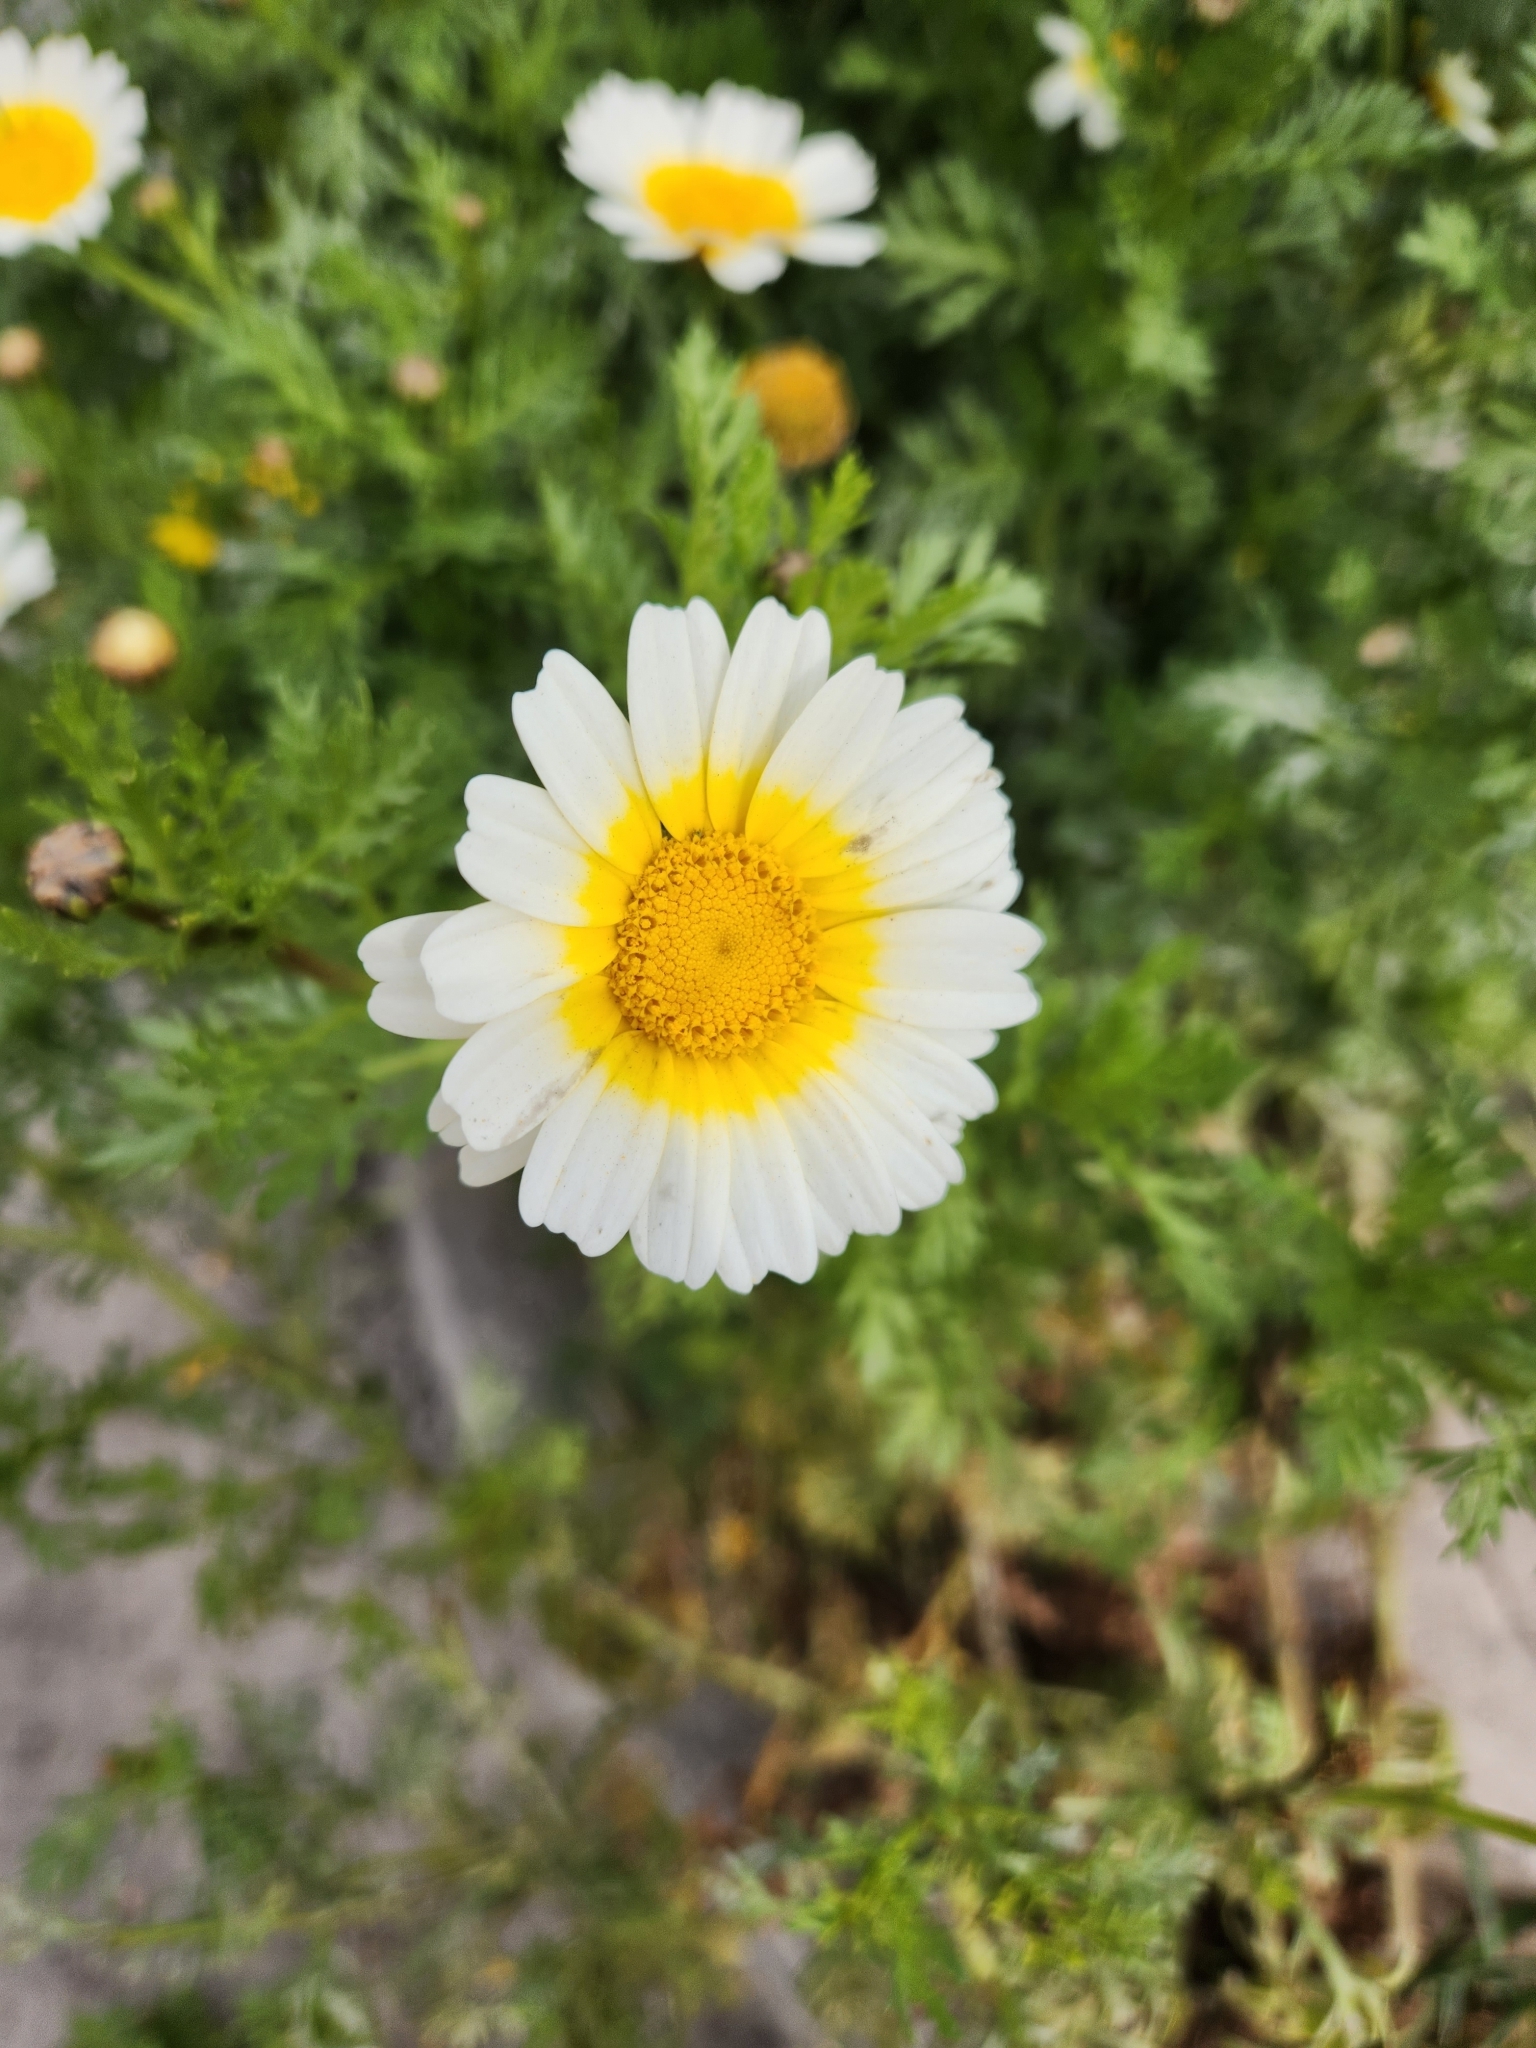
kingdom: Plantae
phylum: Tracheophyta
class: Magnoliopsida
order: Asterales
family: Asteraceae
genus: Glebionis
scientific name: Glebionis coronaria
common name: Crowndaisy
